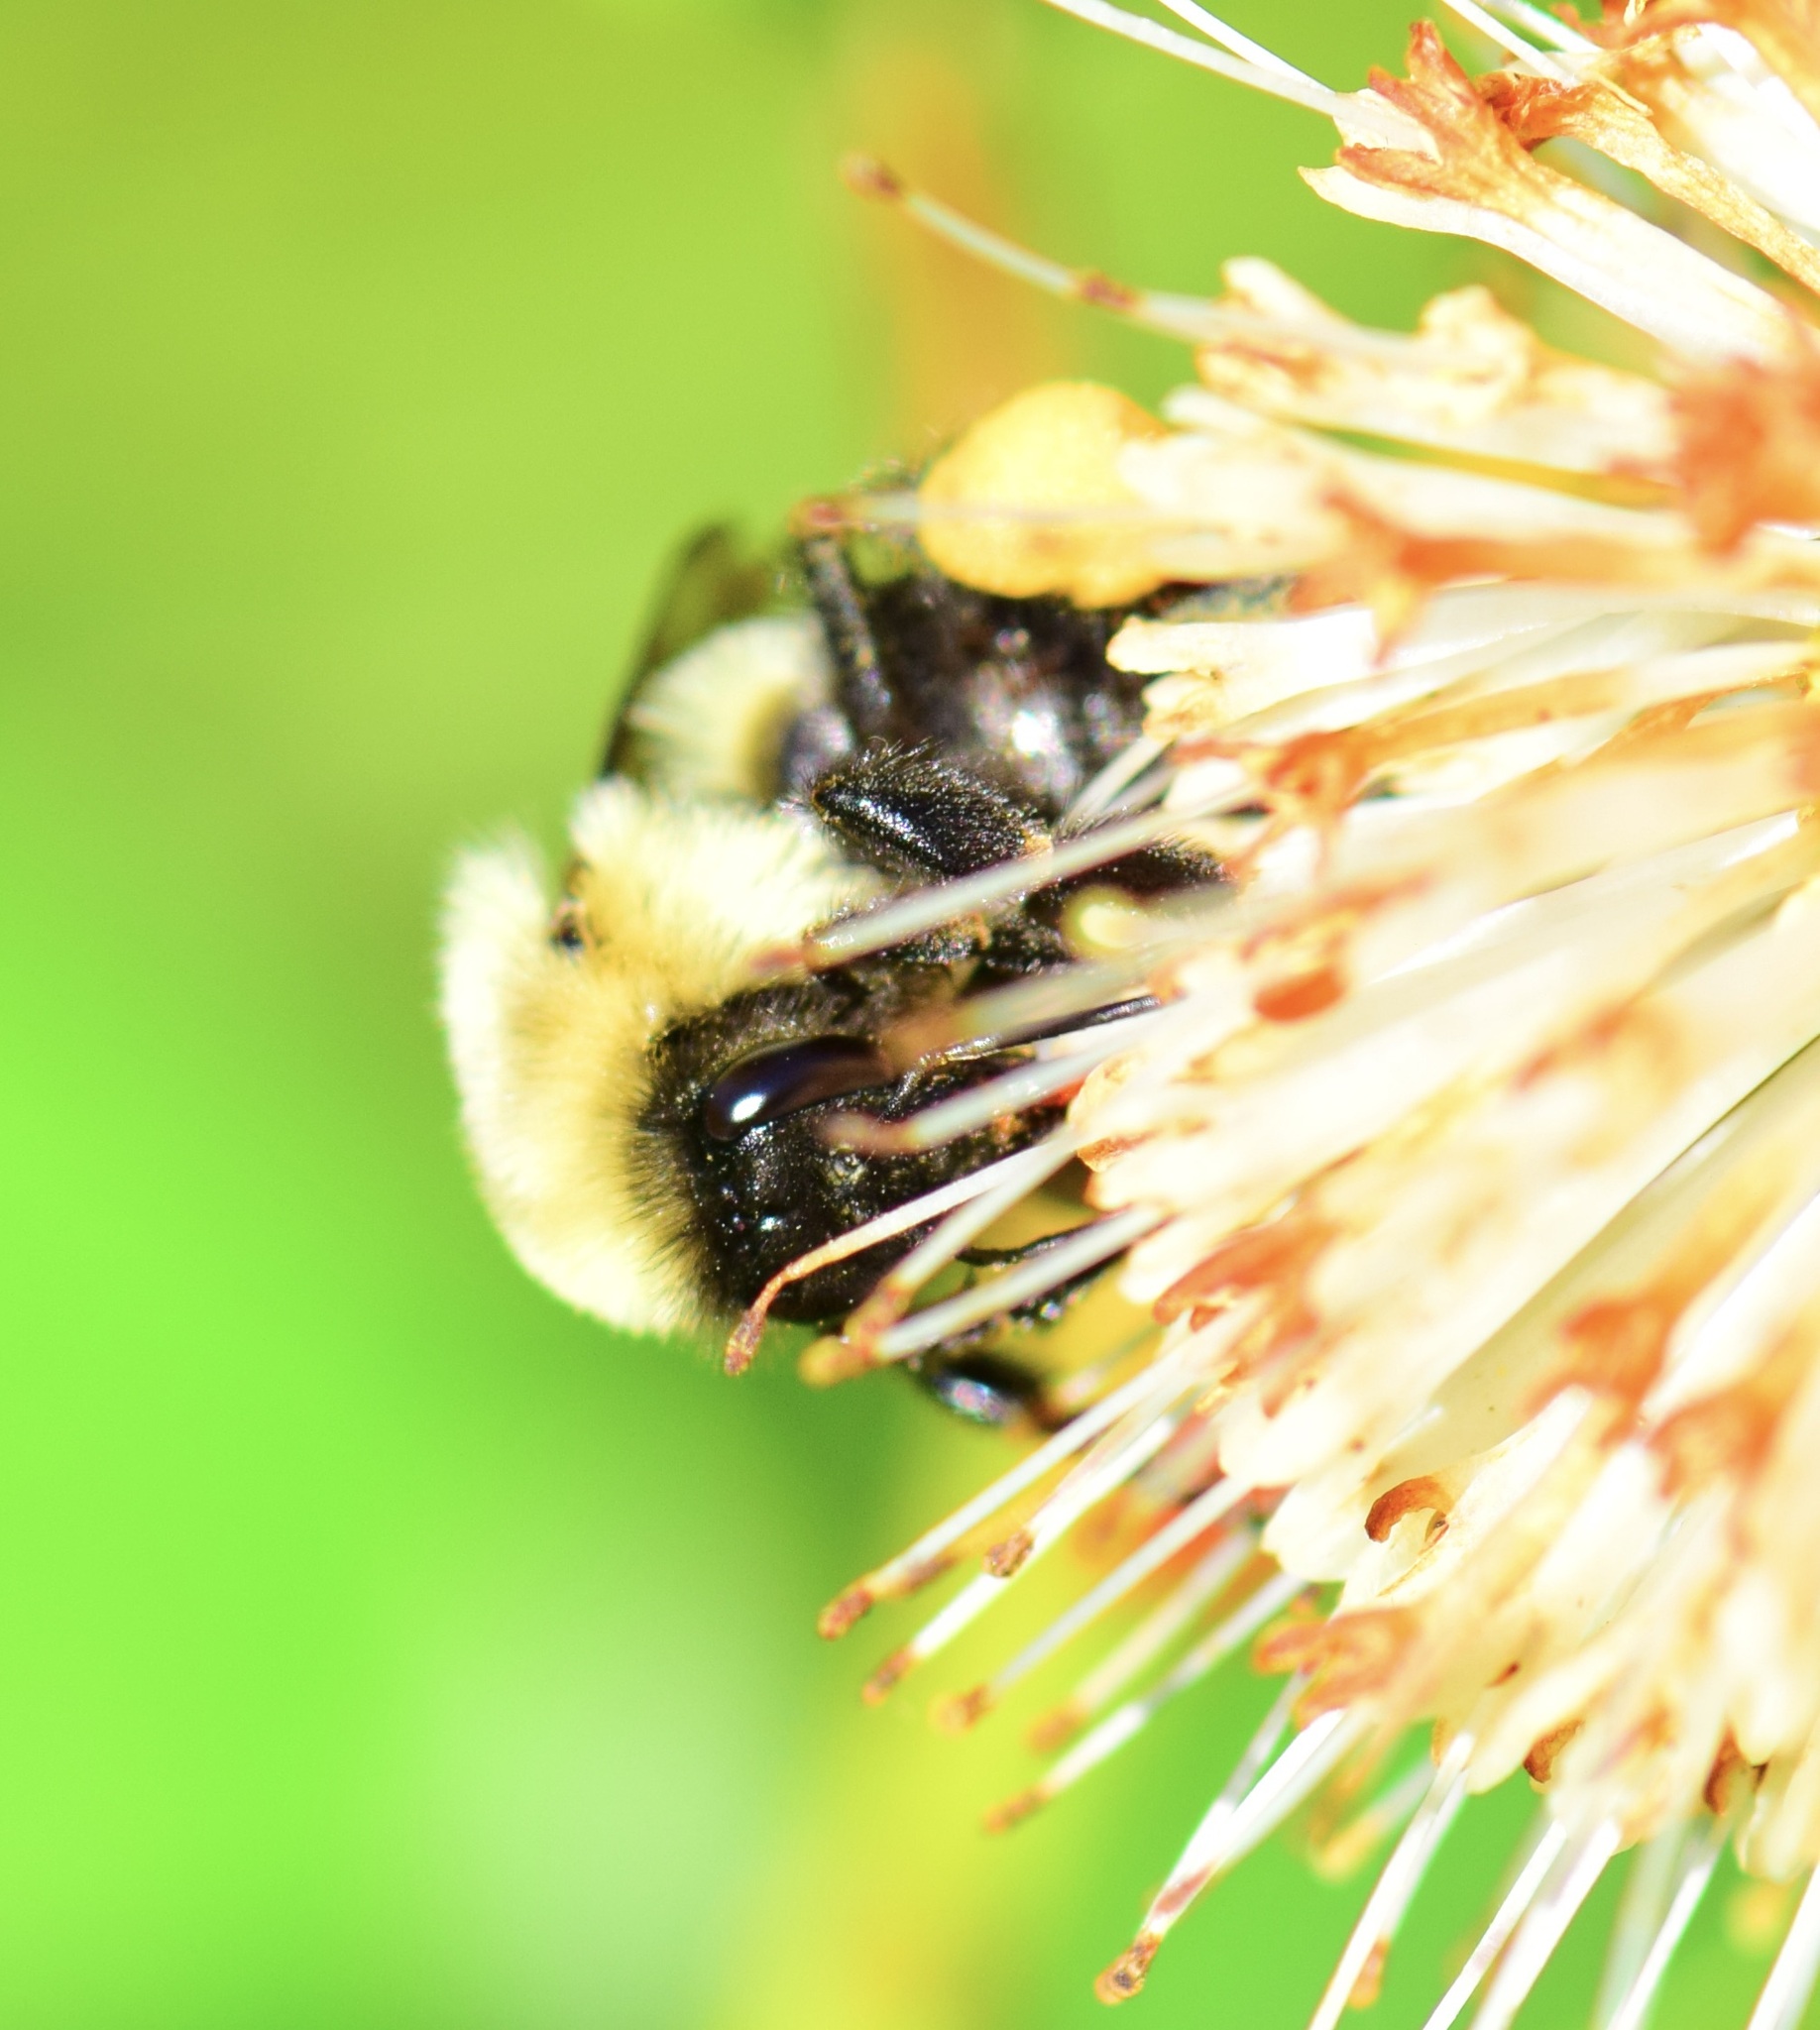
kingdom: Animalia
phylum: Arthropoda
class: Insecta
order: Hymenoptera
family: Apidae
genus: Bombus
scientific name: Bombus impatiens
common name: Common eastern bumble bee
